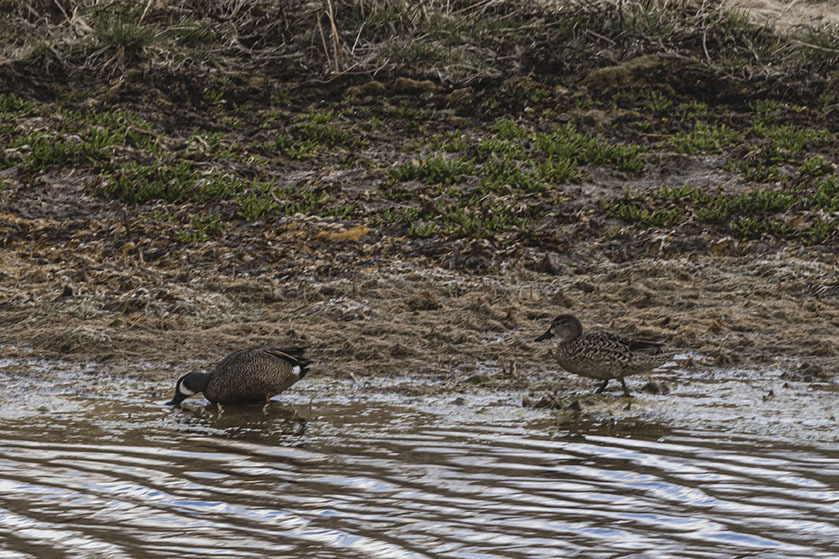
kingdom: Animalia
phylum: Chordata
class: Aves
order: Anseriformes
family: Anatidae
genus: Spatula
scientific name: Spatula discors
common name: Blue-winged teal
